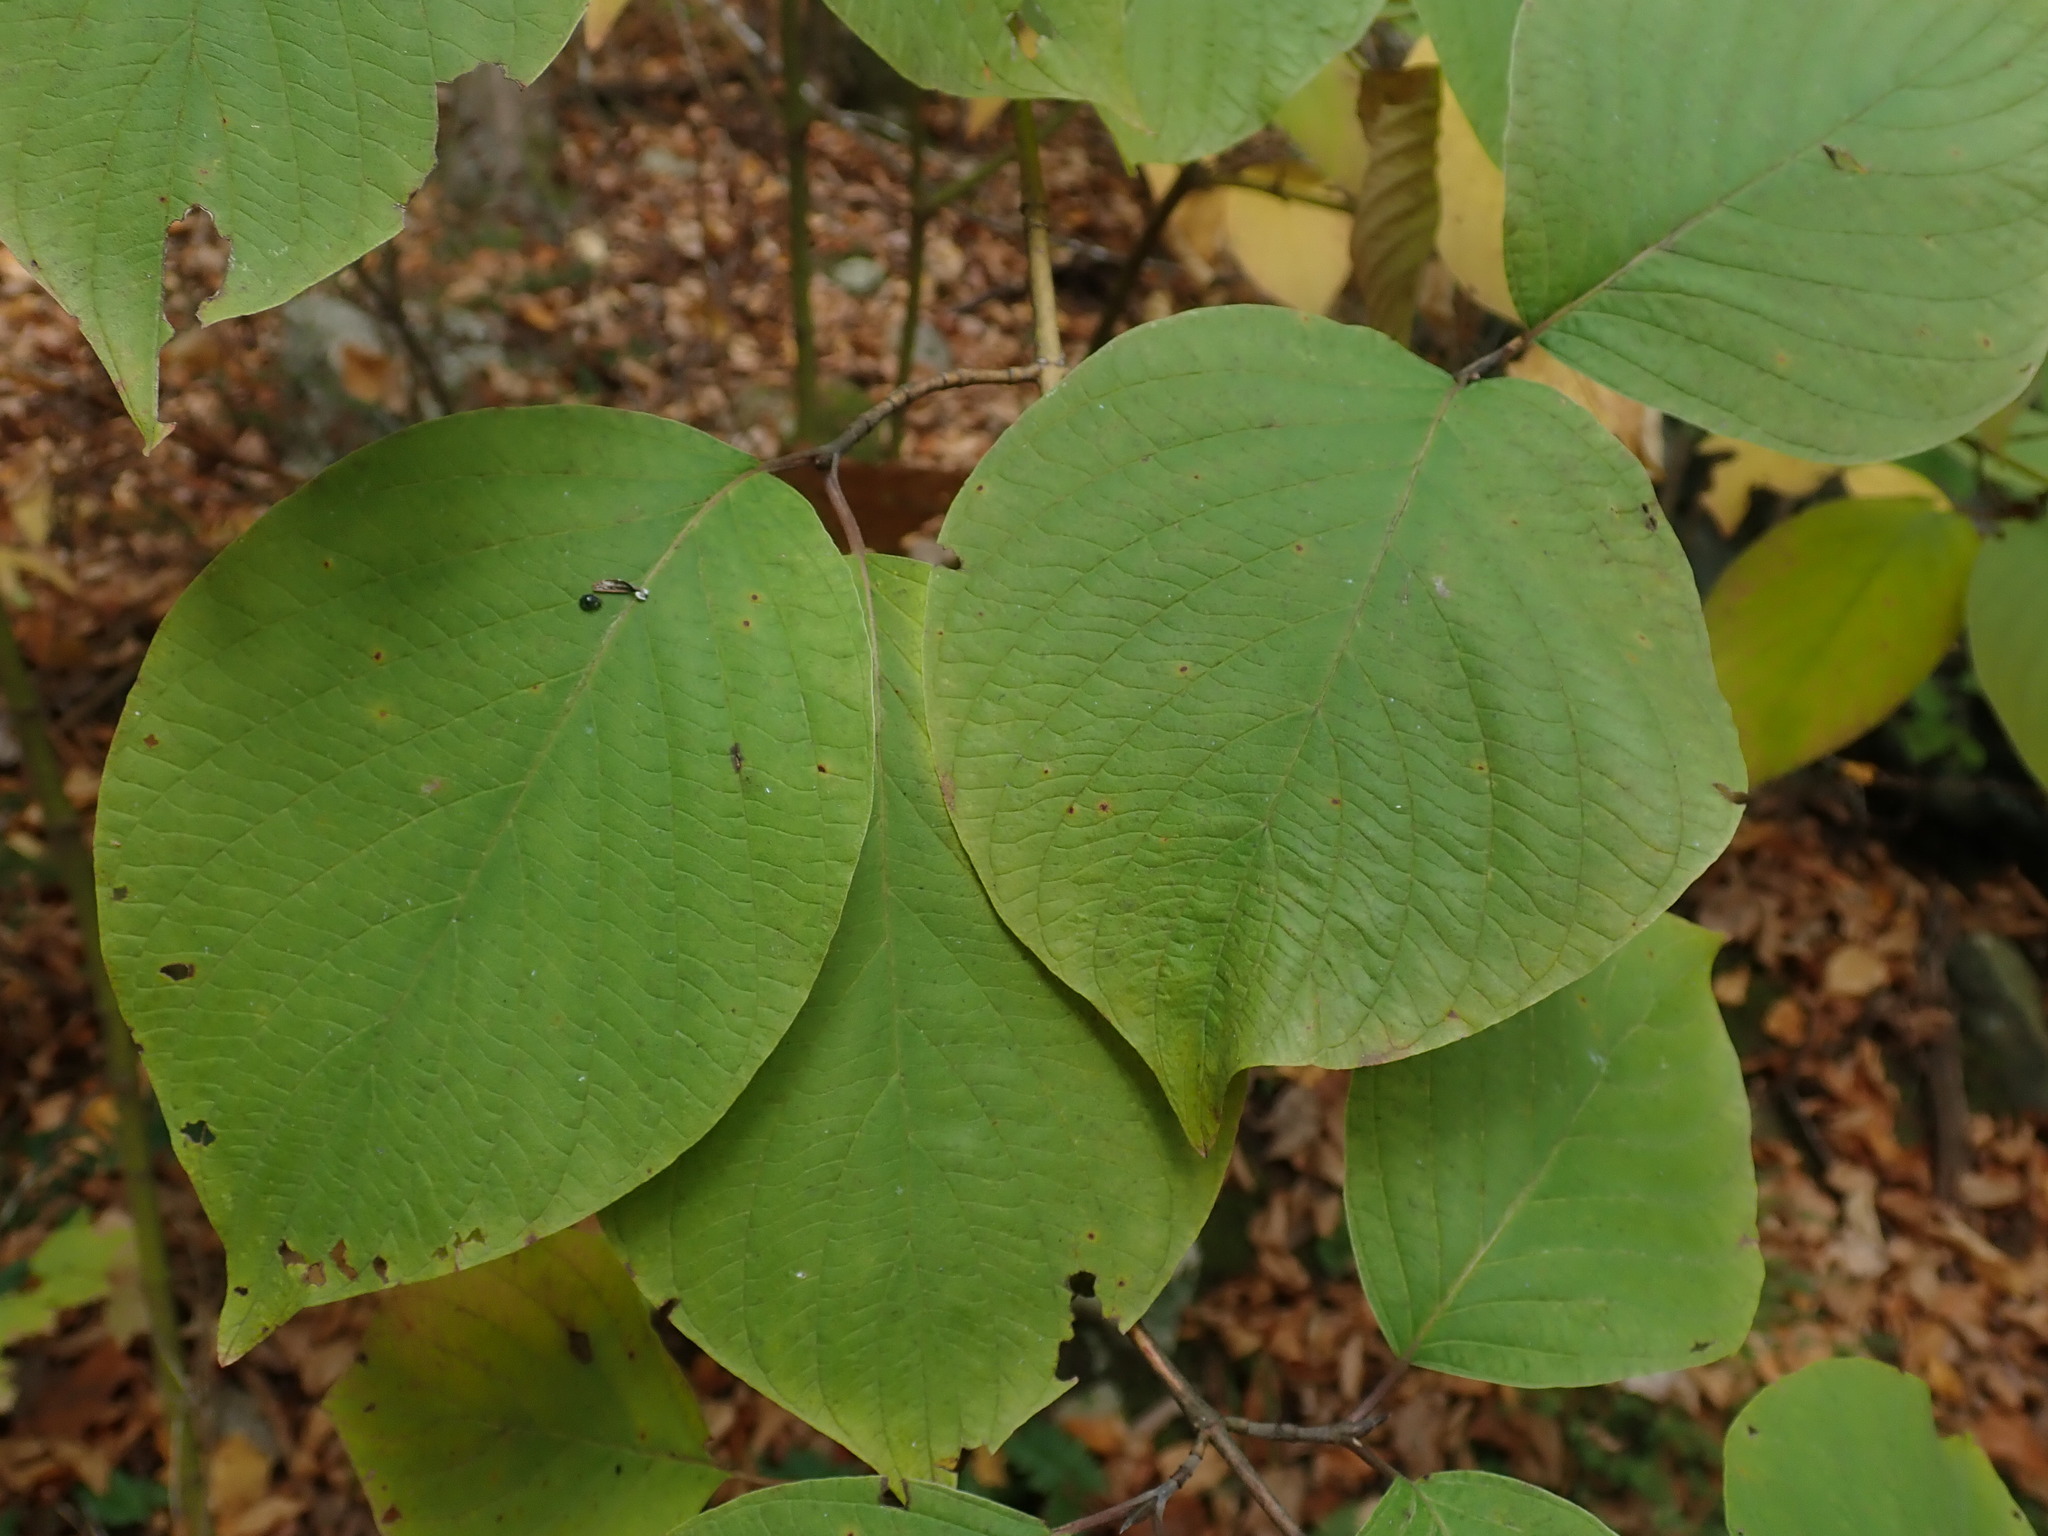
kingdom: Plantae
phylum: Tracheophyta
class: Magnoliopsida
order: Cornales
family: Cornaceae
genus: Cornus
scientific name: Cornus rugosa
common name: Round-leaf dogwood
